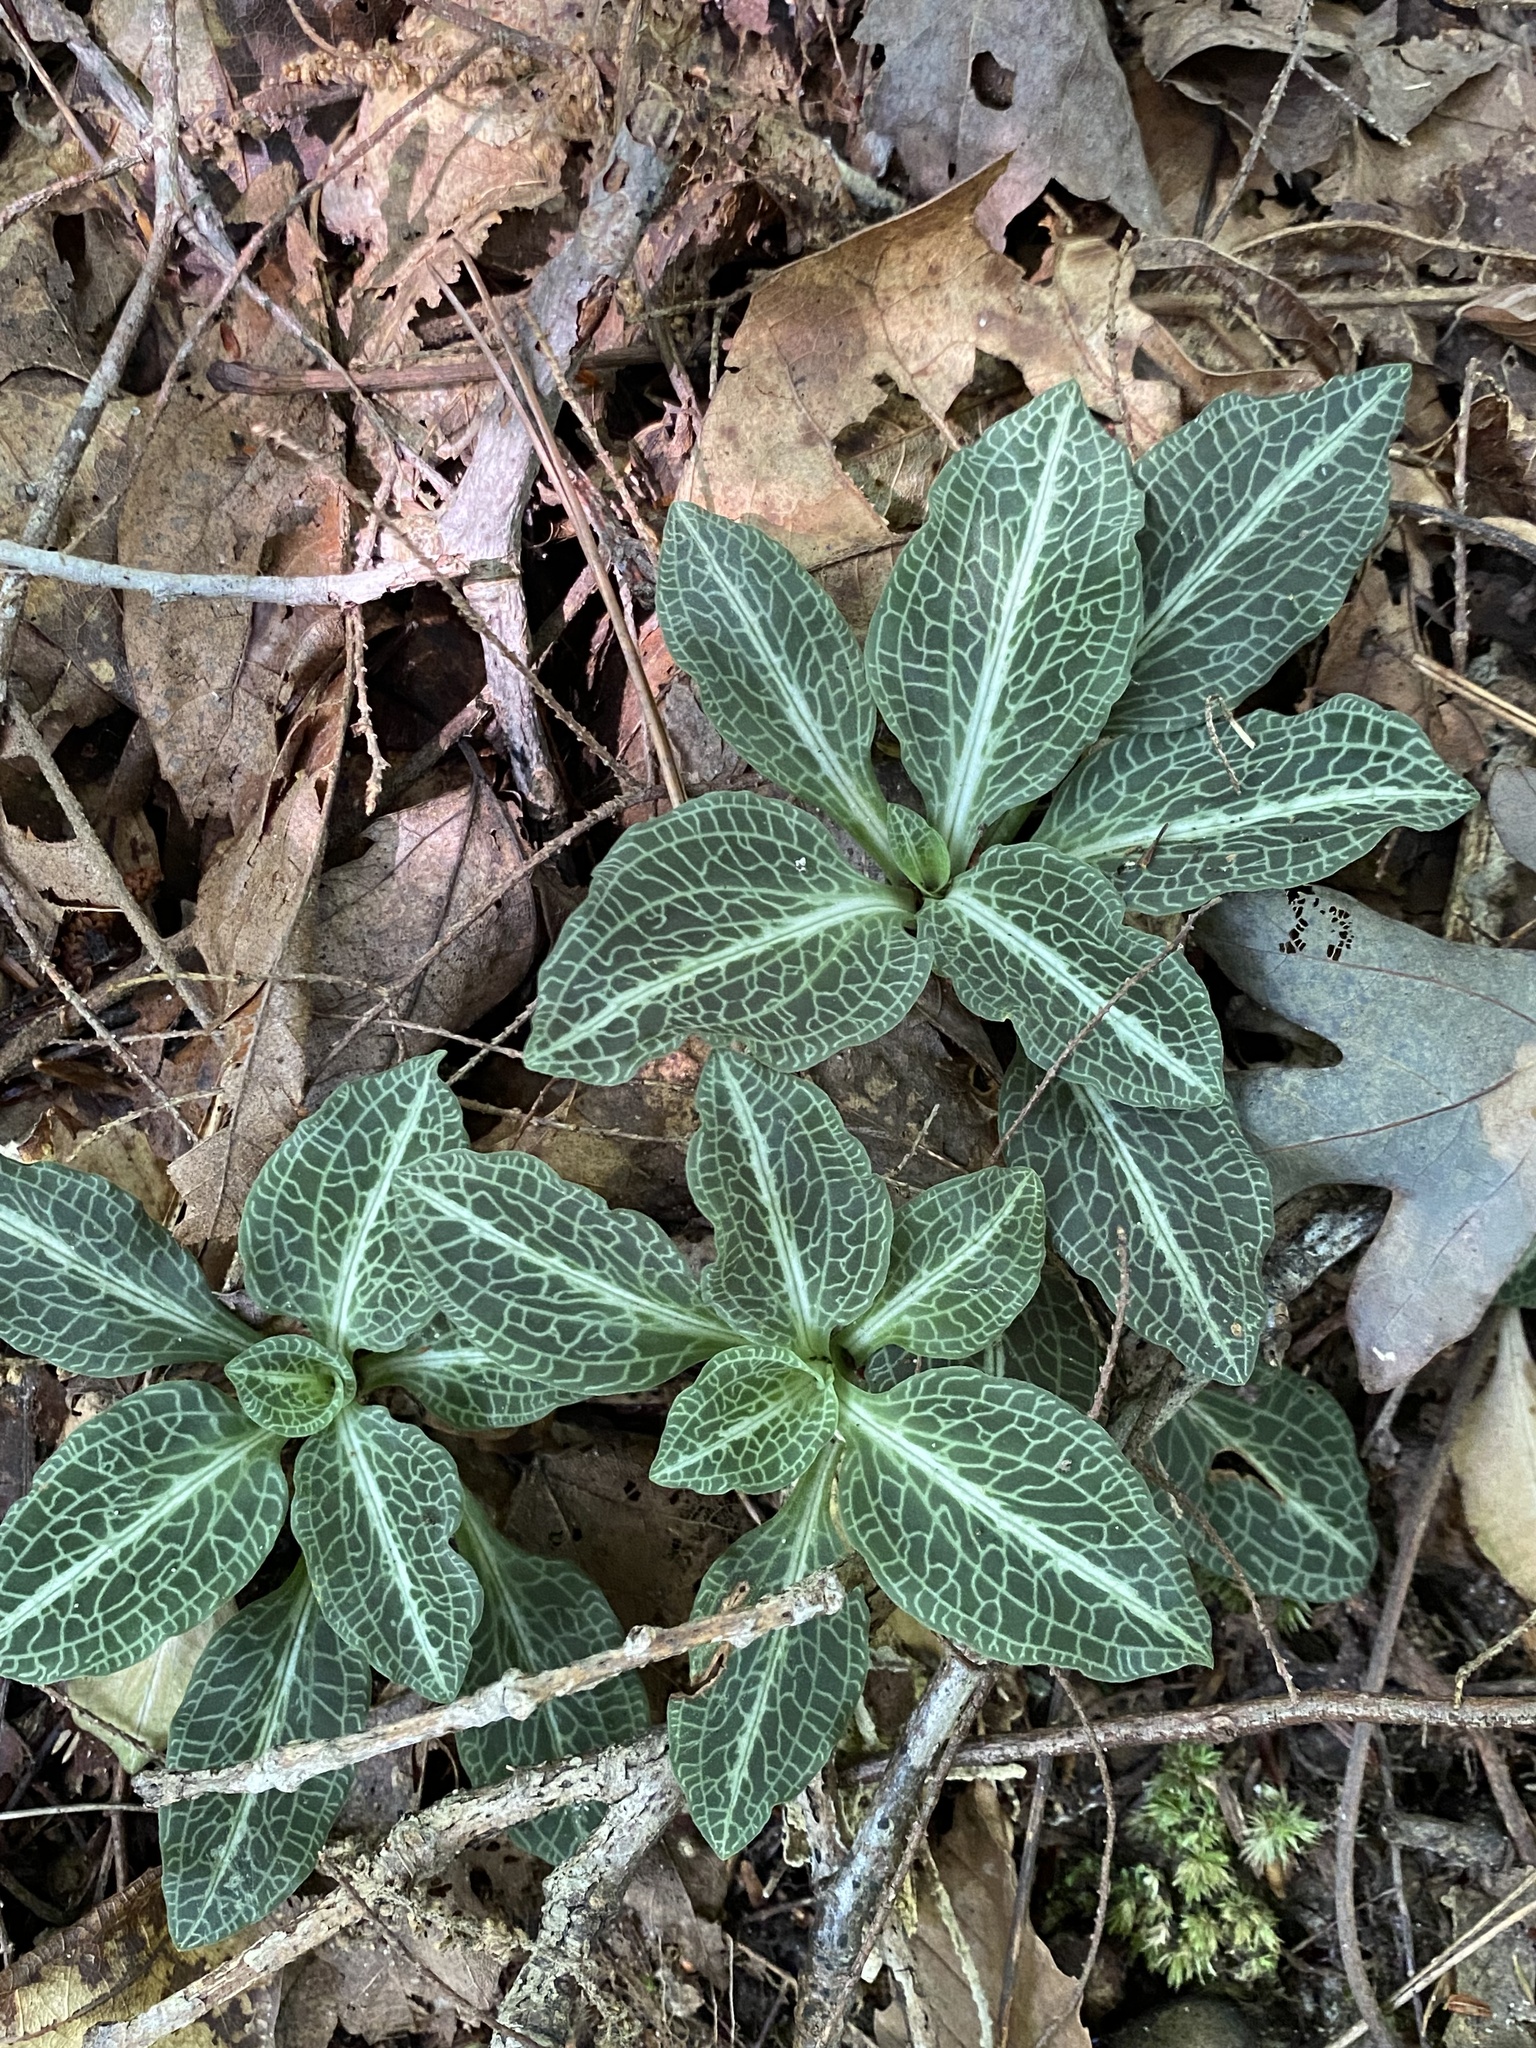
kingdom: Plantae
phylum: Tracheophyta
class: Liliopsida
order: Asparagales
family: Orchidaceae
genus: Goodyera
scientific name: Goodyera pubescens
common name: Downy rattlesnake-plantain
